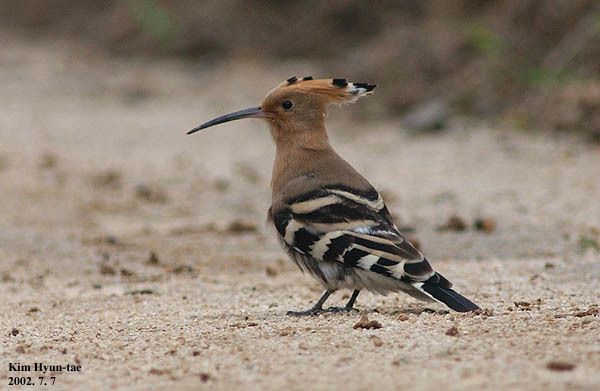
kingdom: Animalia
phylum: Chordata
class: Aves
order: Bucerotiformes
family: Upupidae
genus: Upupa
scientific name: Upupa epops
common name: Eurasian hoopoe
